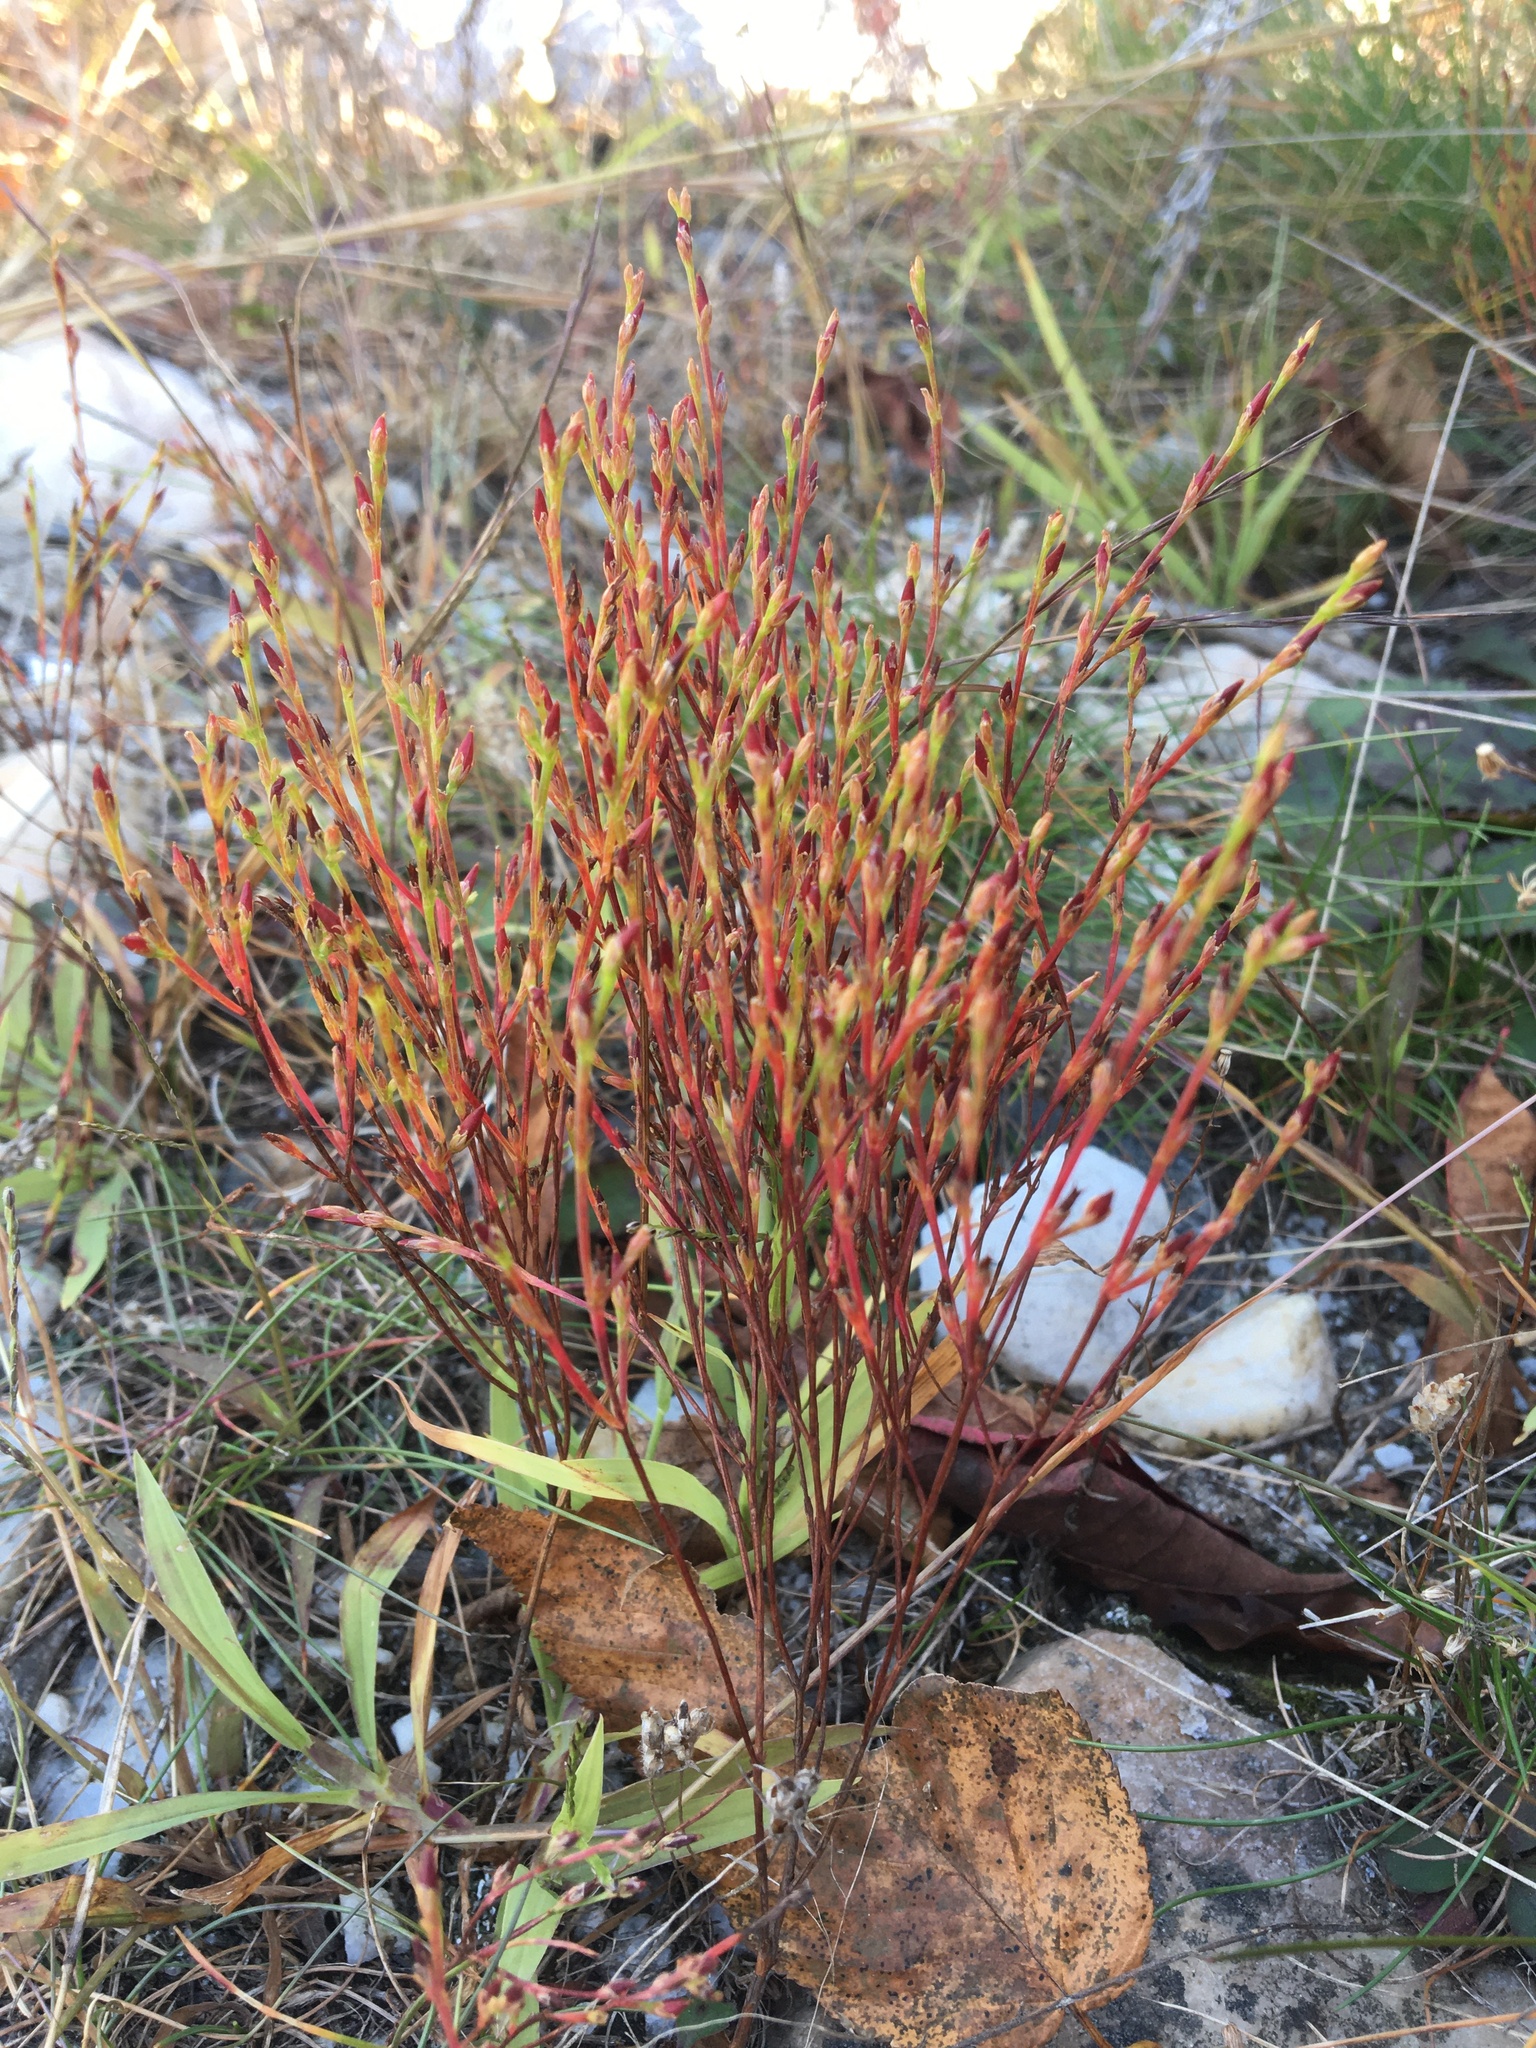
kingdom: Plantae
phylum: Tracheophyta
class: Magnoliopsida
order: Malpighiales
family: Hypericaceae
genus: Hypericum
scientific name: Hypericum gentianoides
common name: Gentian-leaved st. john's-wort
